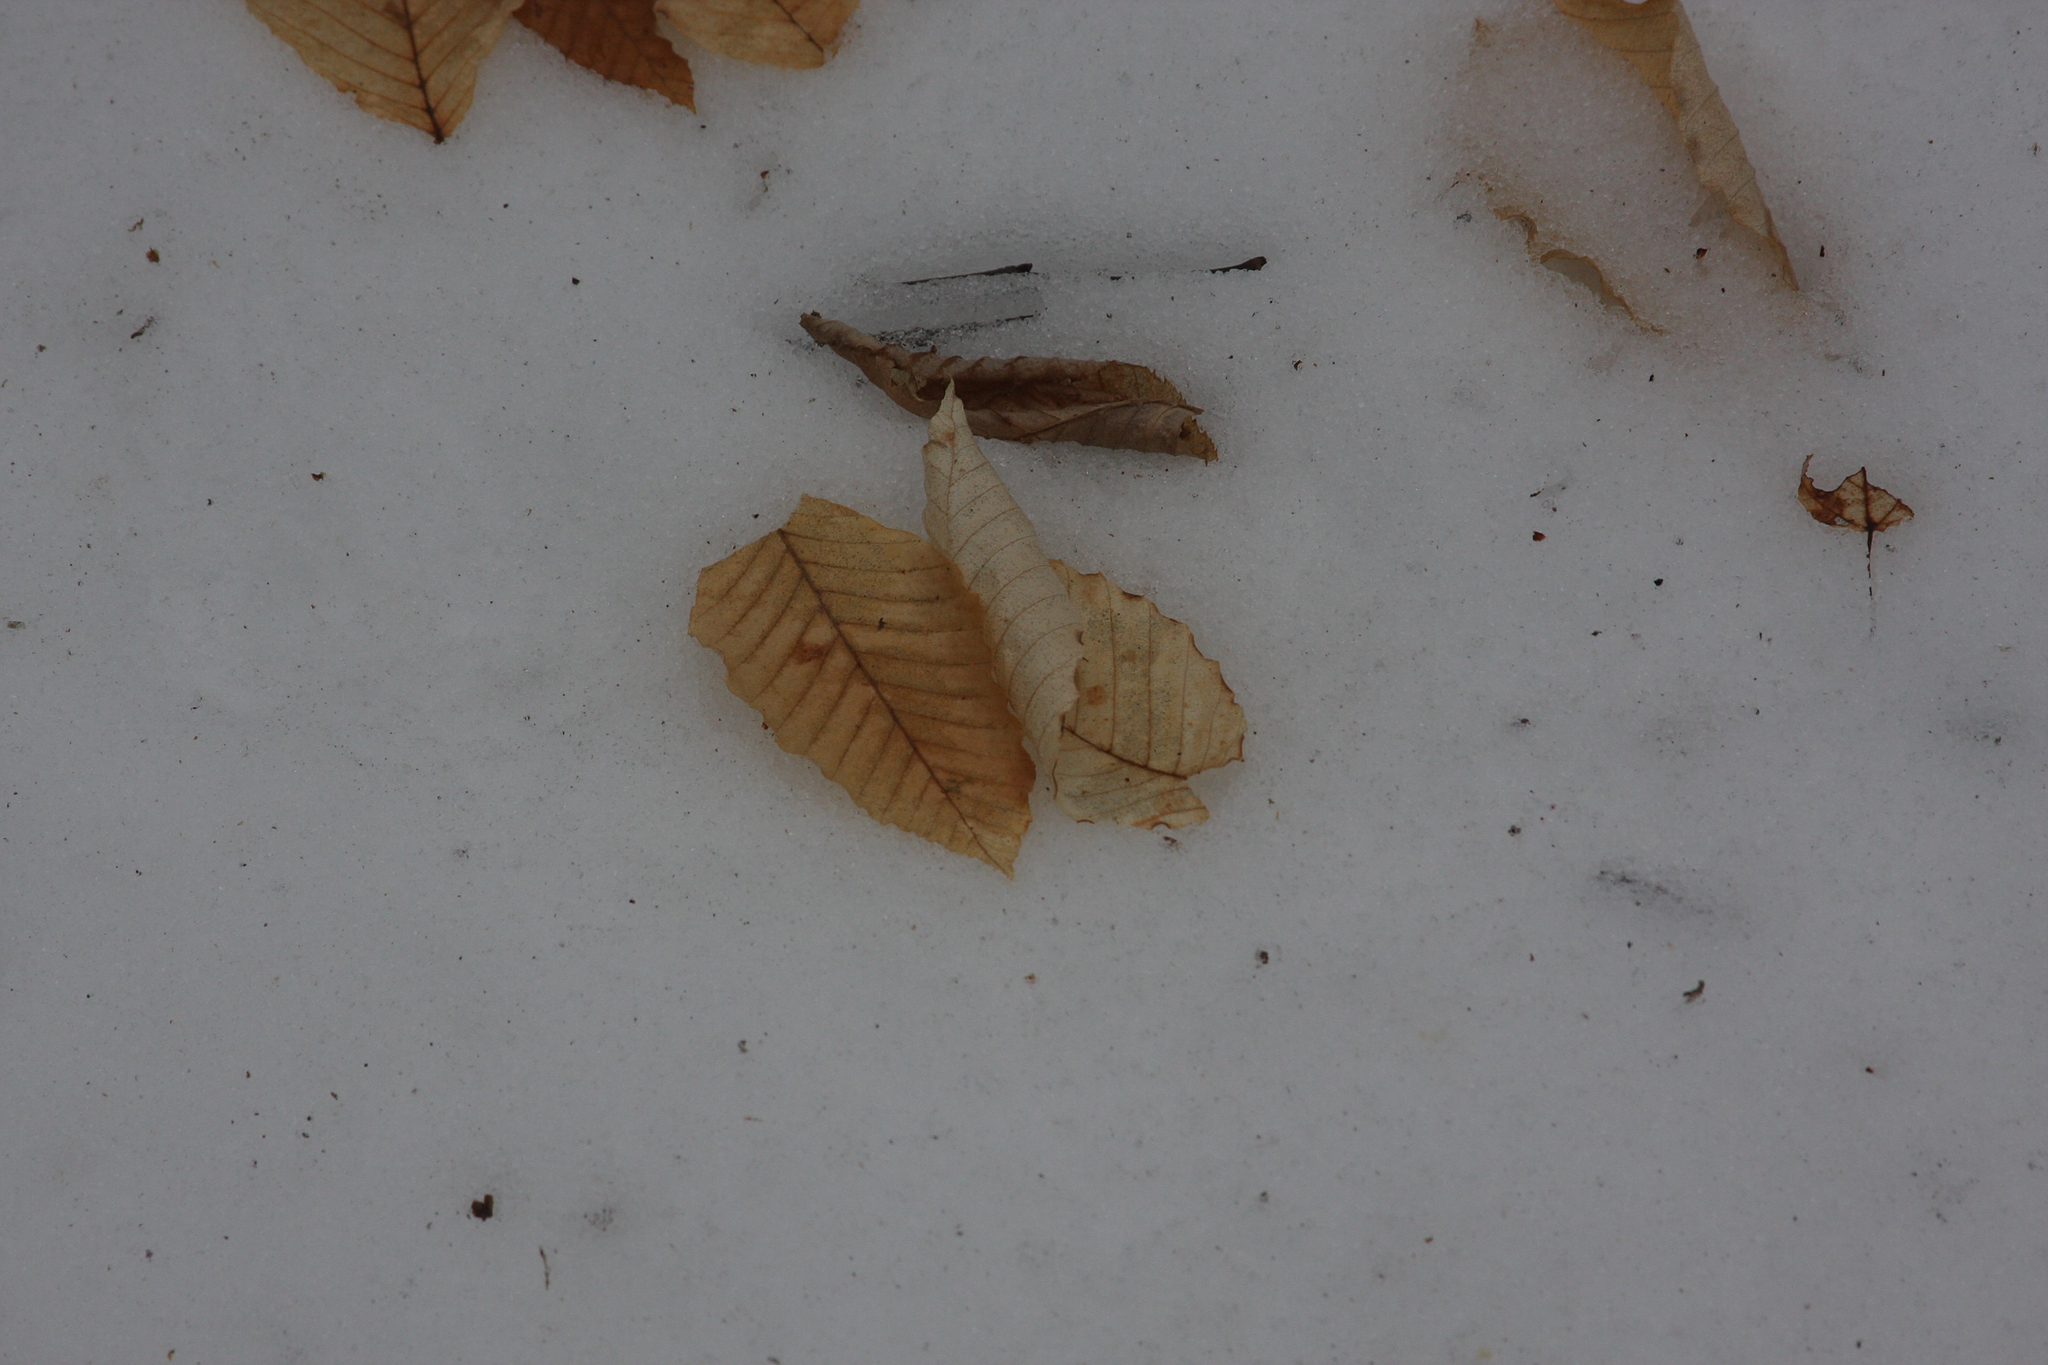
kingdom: Plantae
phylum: Tracheophyta
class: Magnoliopsida
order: Fagales
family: Fagaceae
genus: Fagus
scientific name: Fagus grandifolia
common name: American beech
